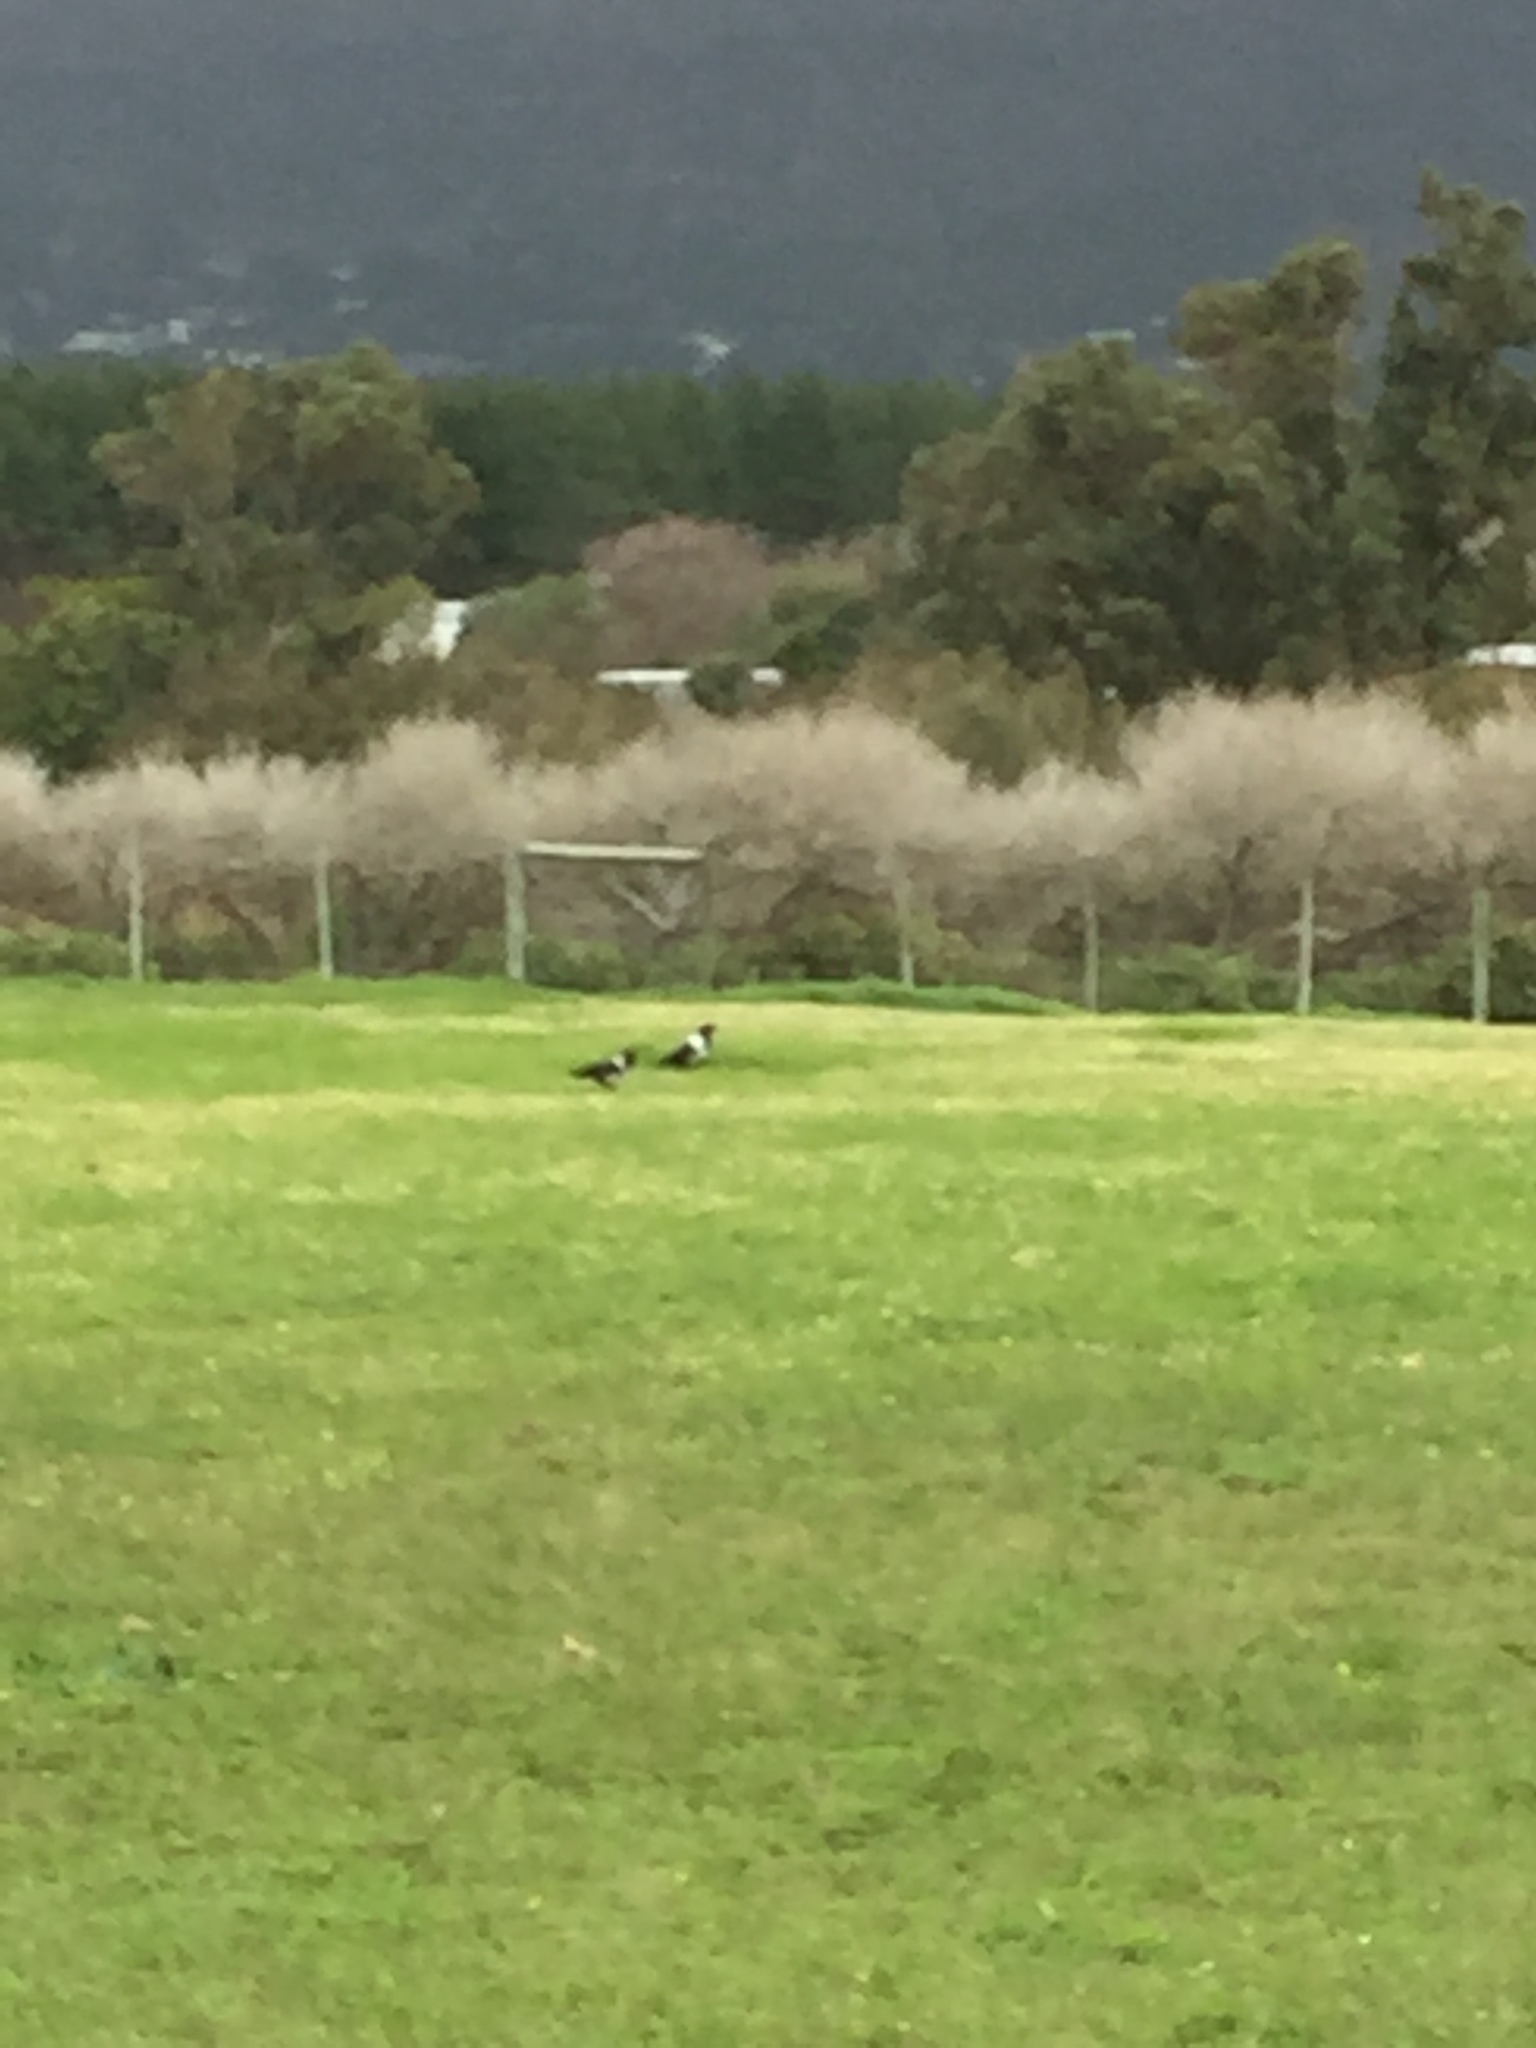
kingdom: Animalia
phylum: Chordata
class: Aves
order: Passeriformes
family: Corvidae
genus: Corvus
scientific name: Corvus albus
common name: Pied crow
